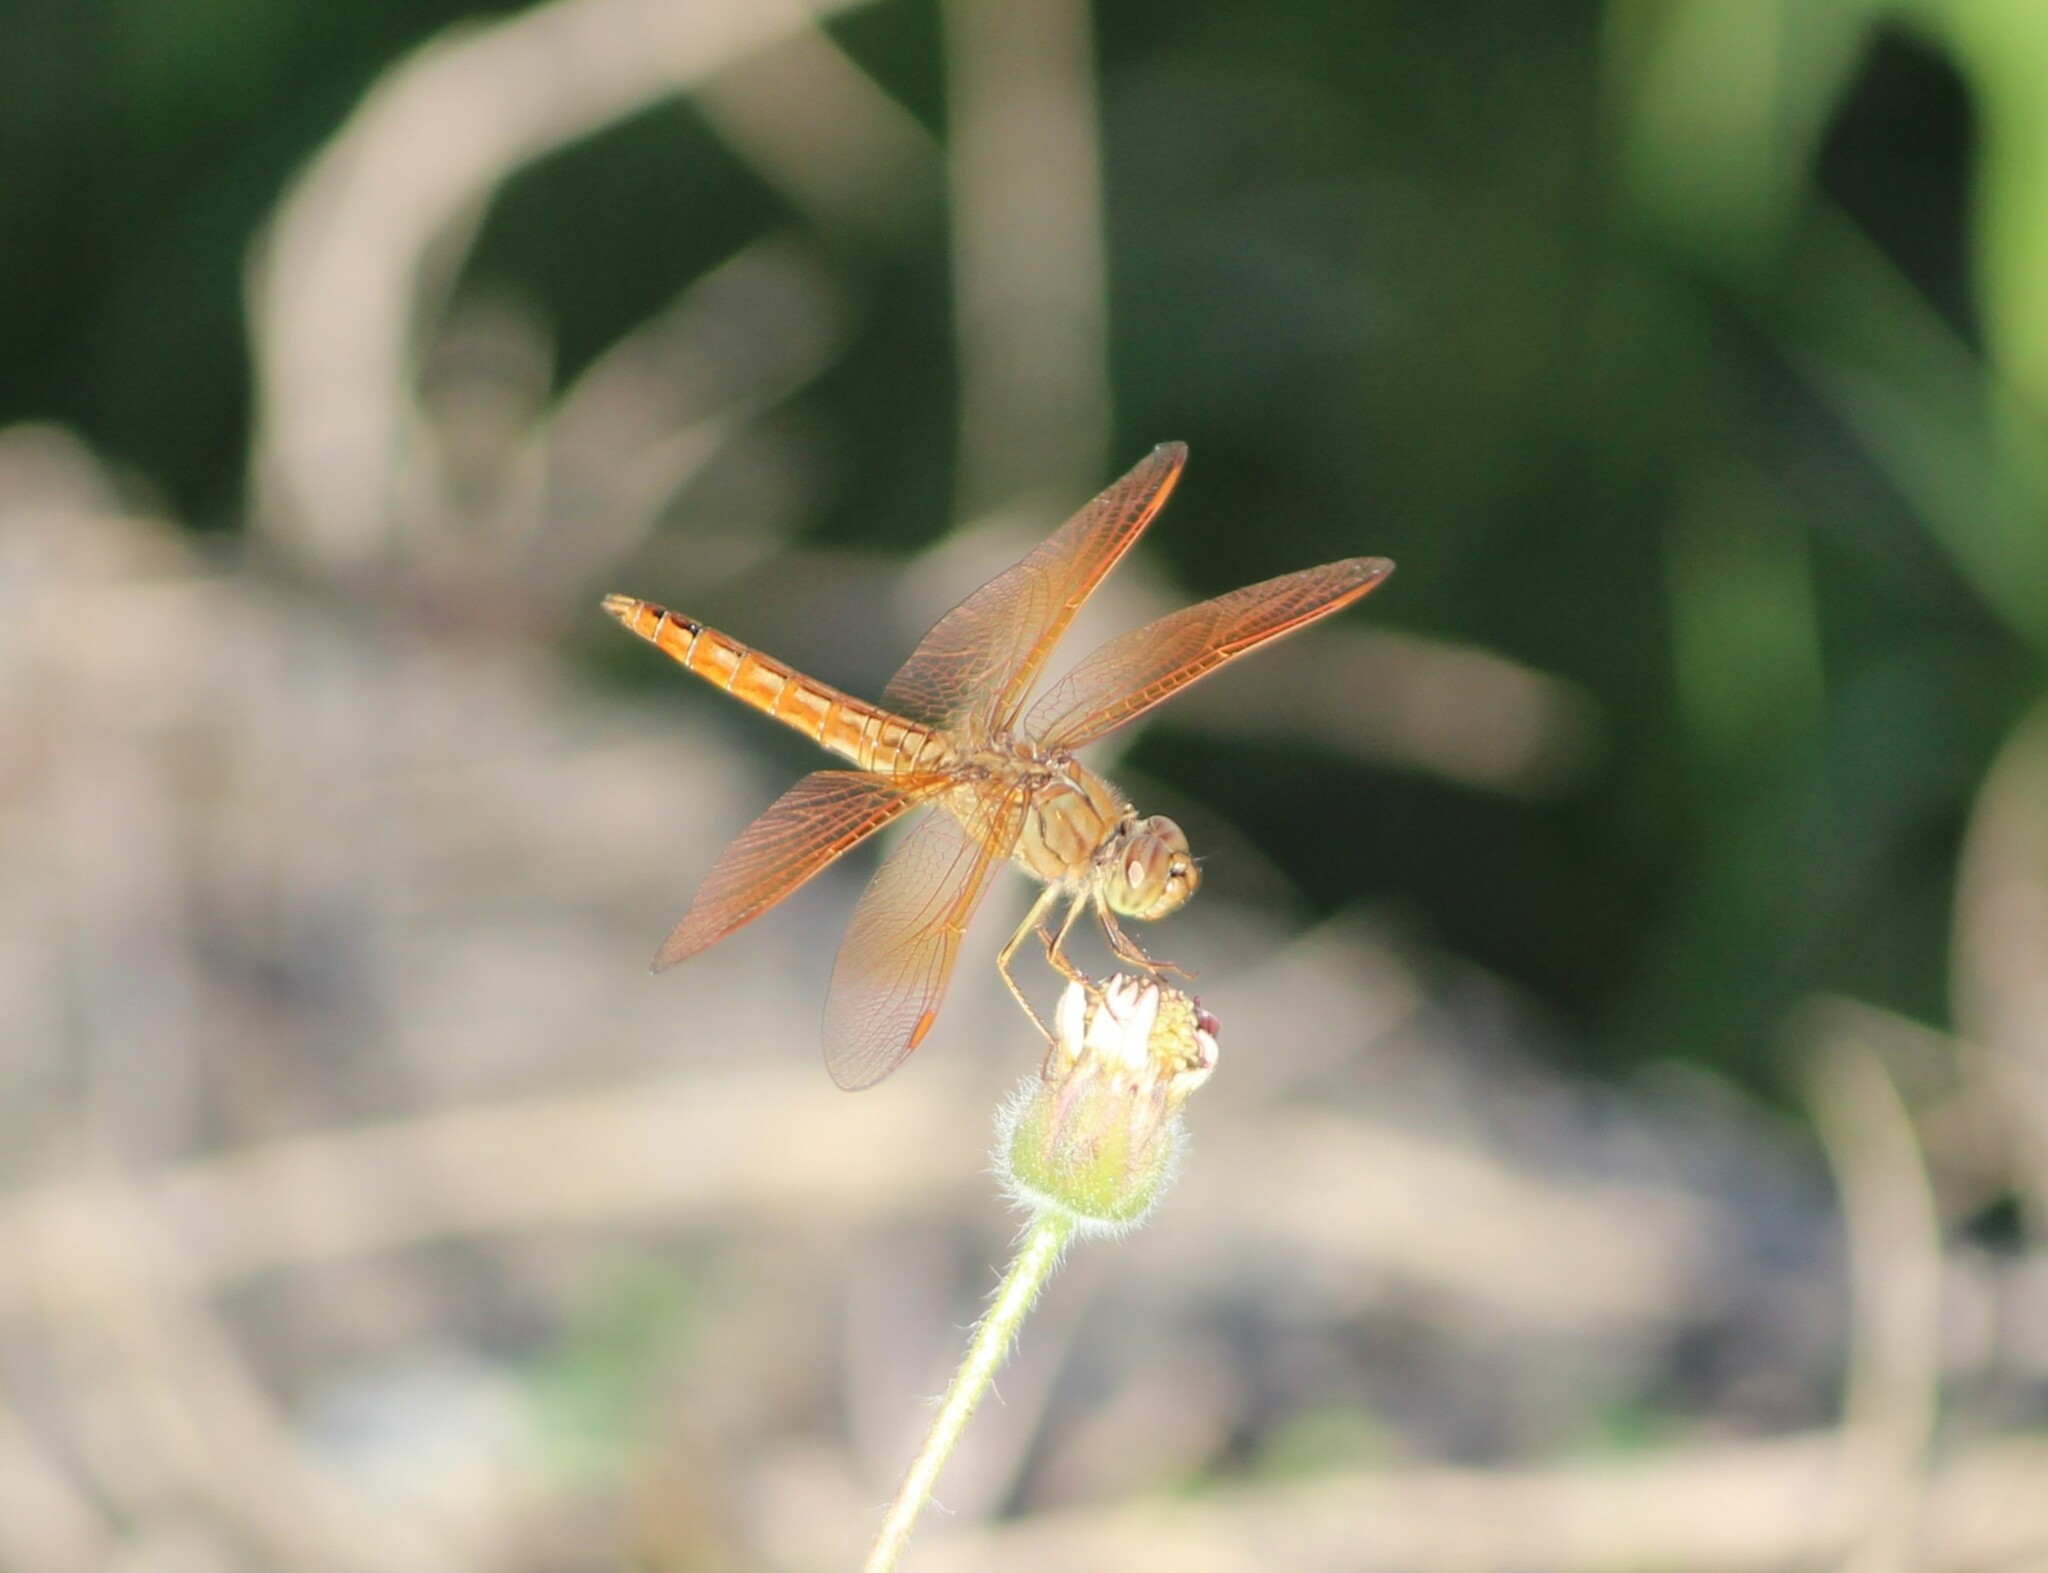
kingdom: Animalia
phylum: Arthropoda
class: Insecta
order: Odonata
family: Libellulidae
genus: Brachythemis
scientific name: Brachythemis contaminata
